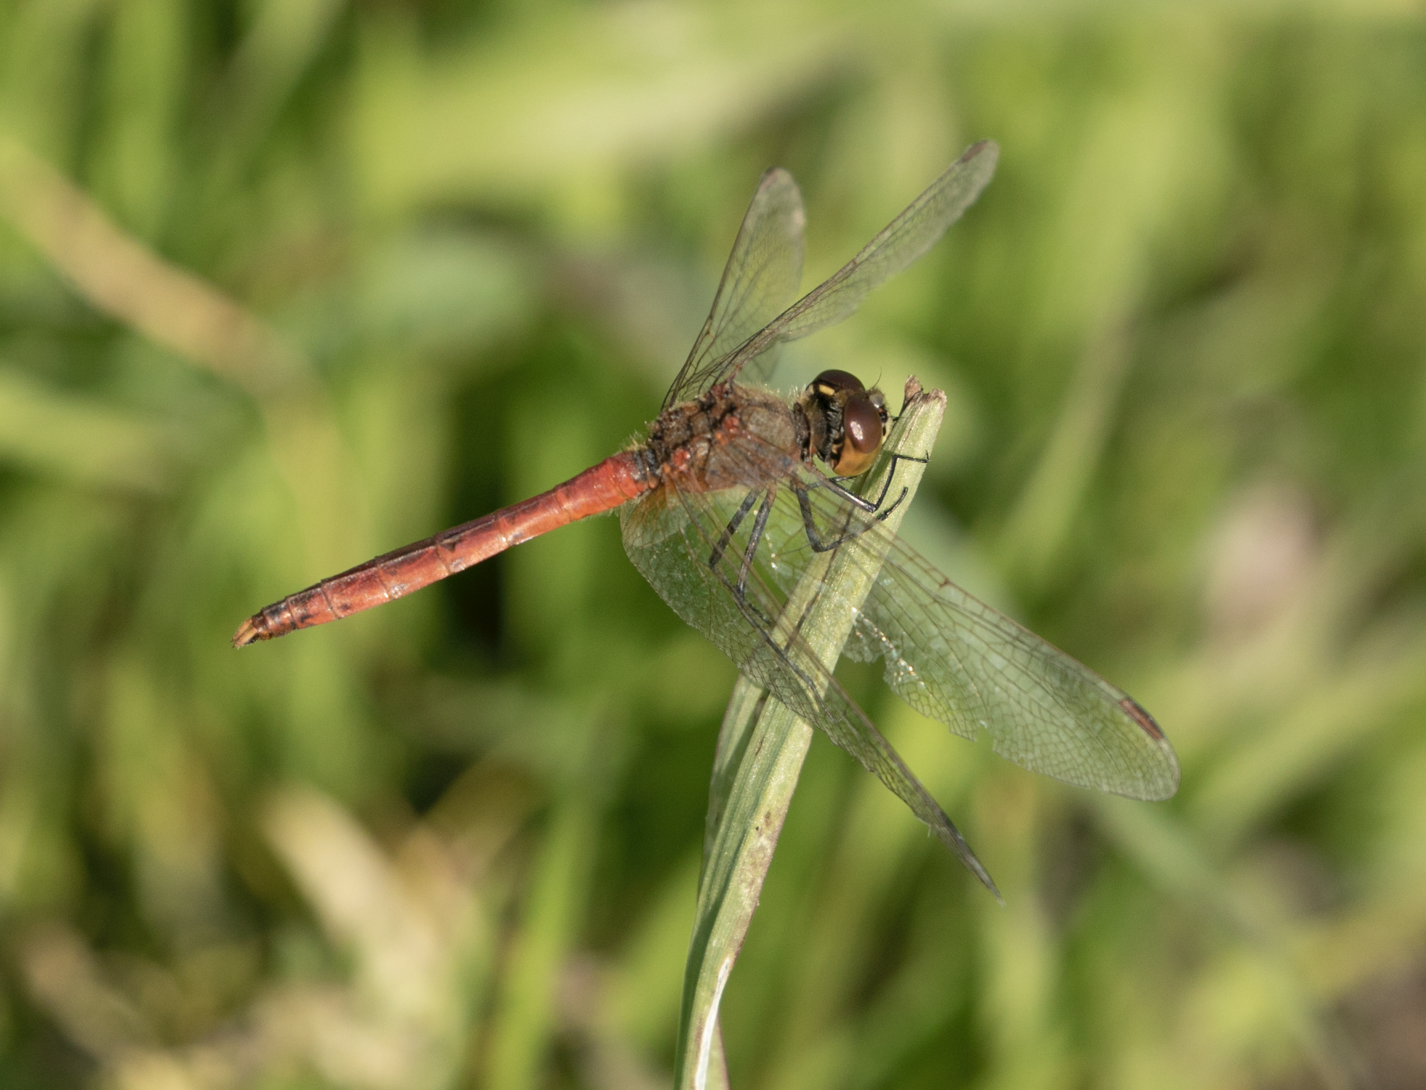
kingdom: Animalia
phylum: Arthropoda
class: Insecta
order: Odonata
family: Libellulidae
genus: Sympetrum
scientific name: Sympetrum depressiusculum
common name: Spotted darter
